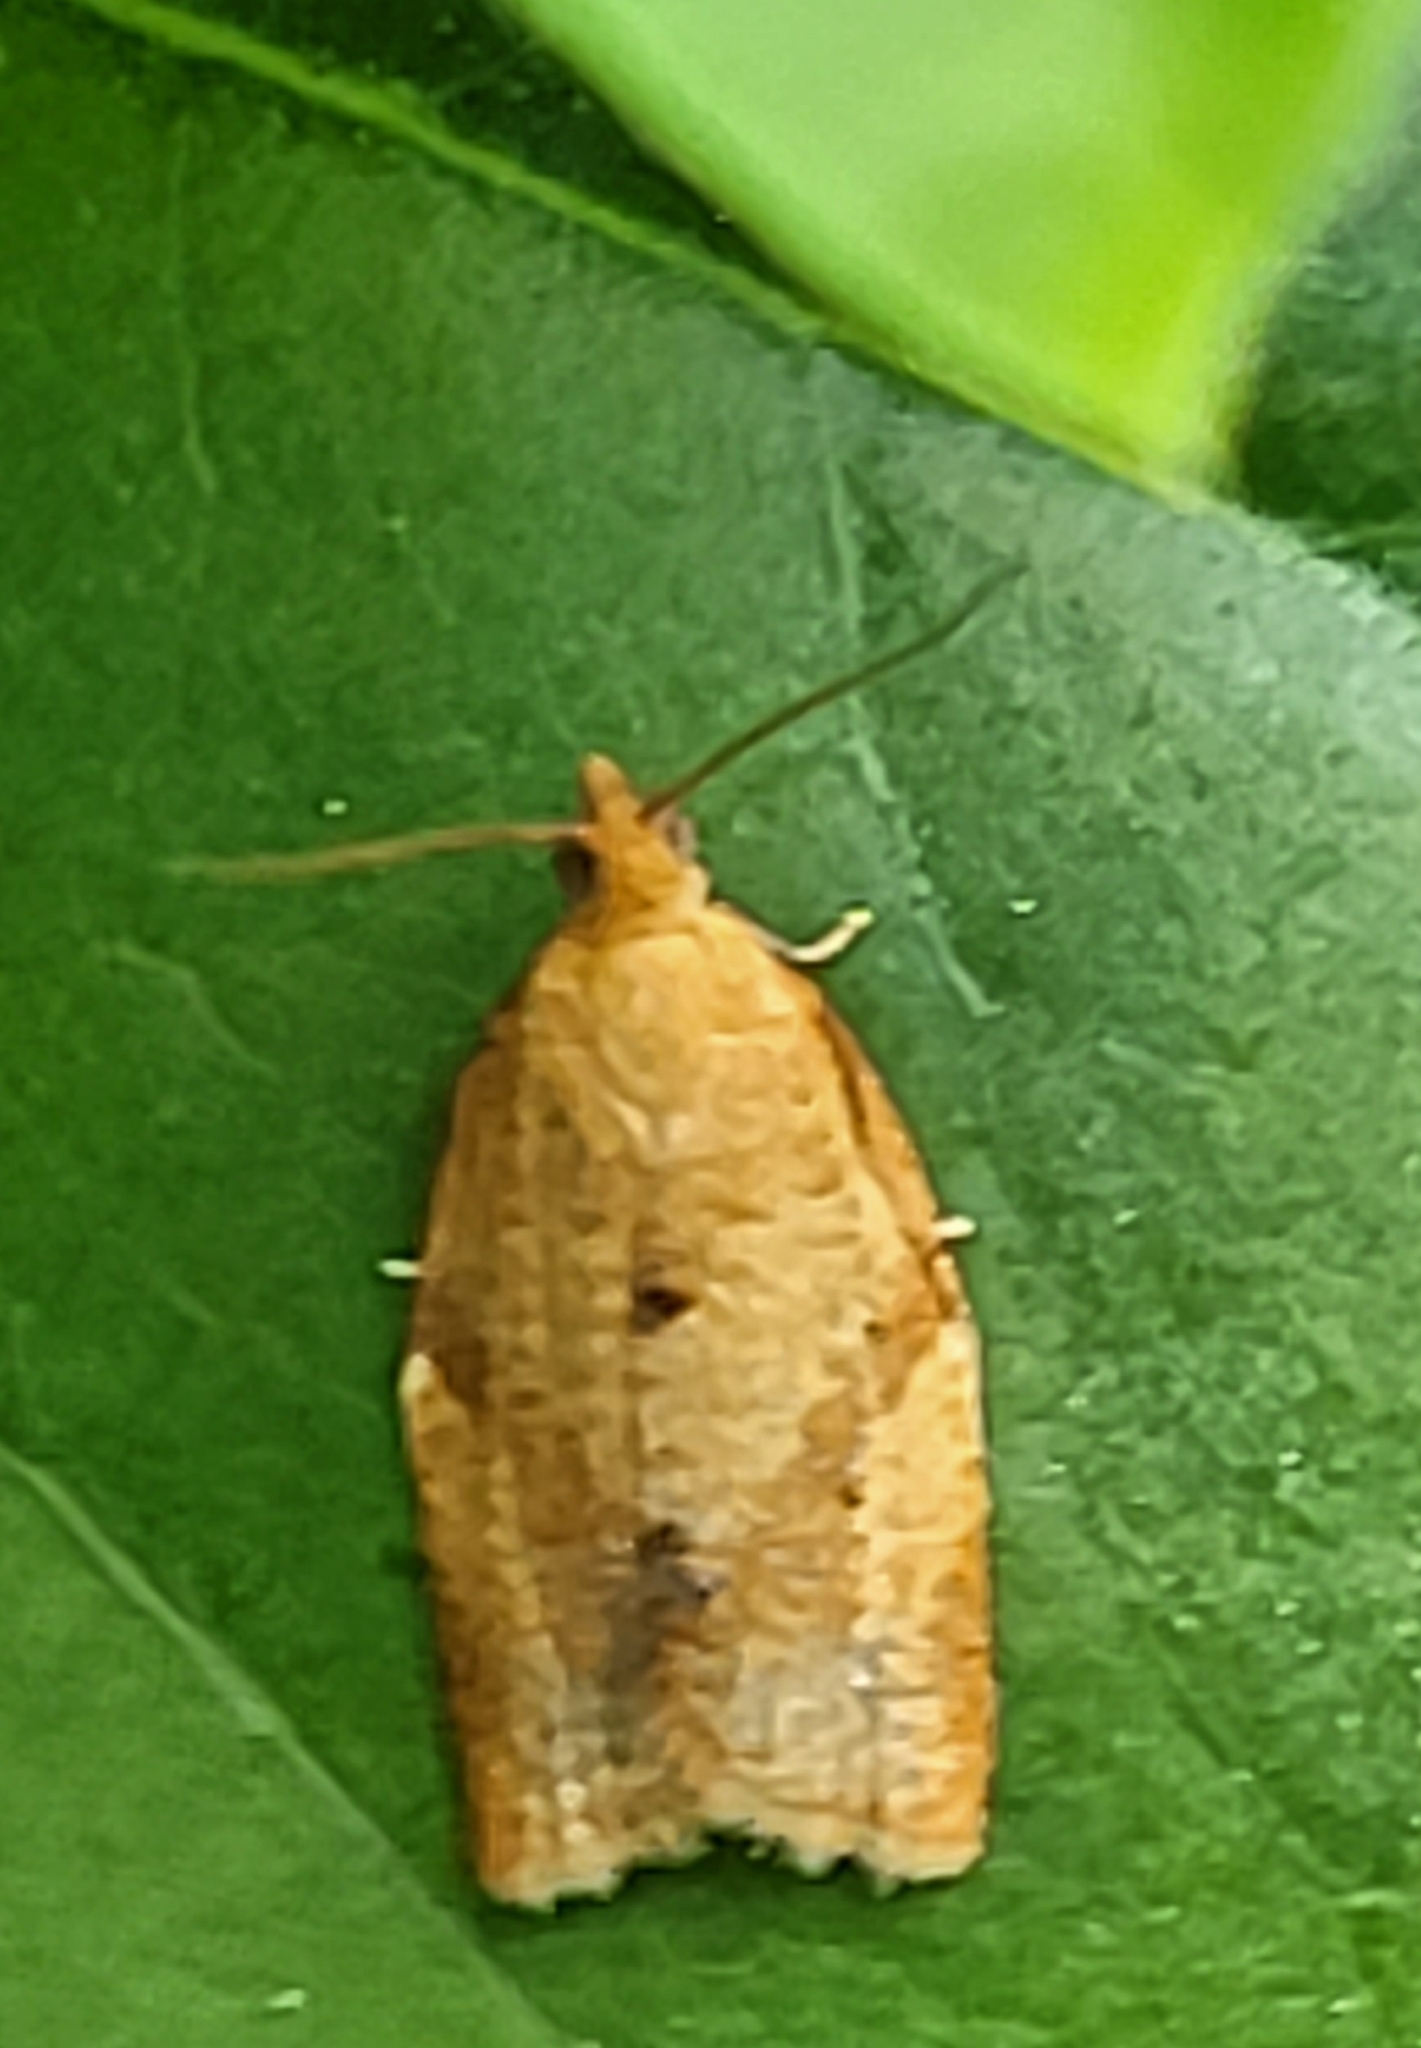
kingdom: Animalia
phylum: Arthropoda
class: Insecta
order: Lepidoptera
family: Tortricidae
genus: Clepsis
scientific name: Clepsis consimilana
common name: Privet tortrix
